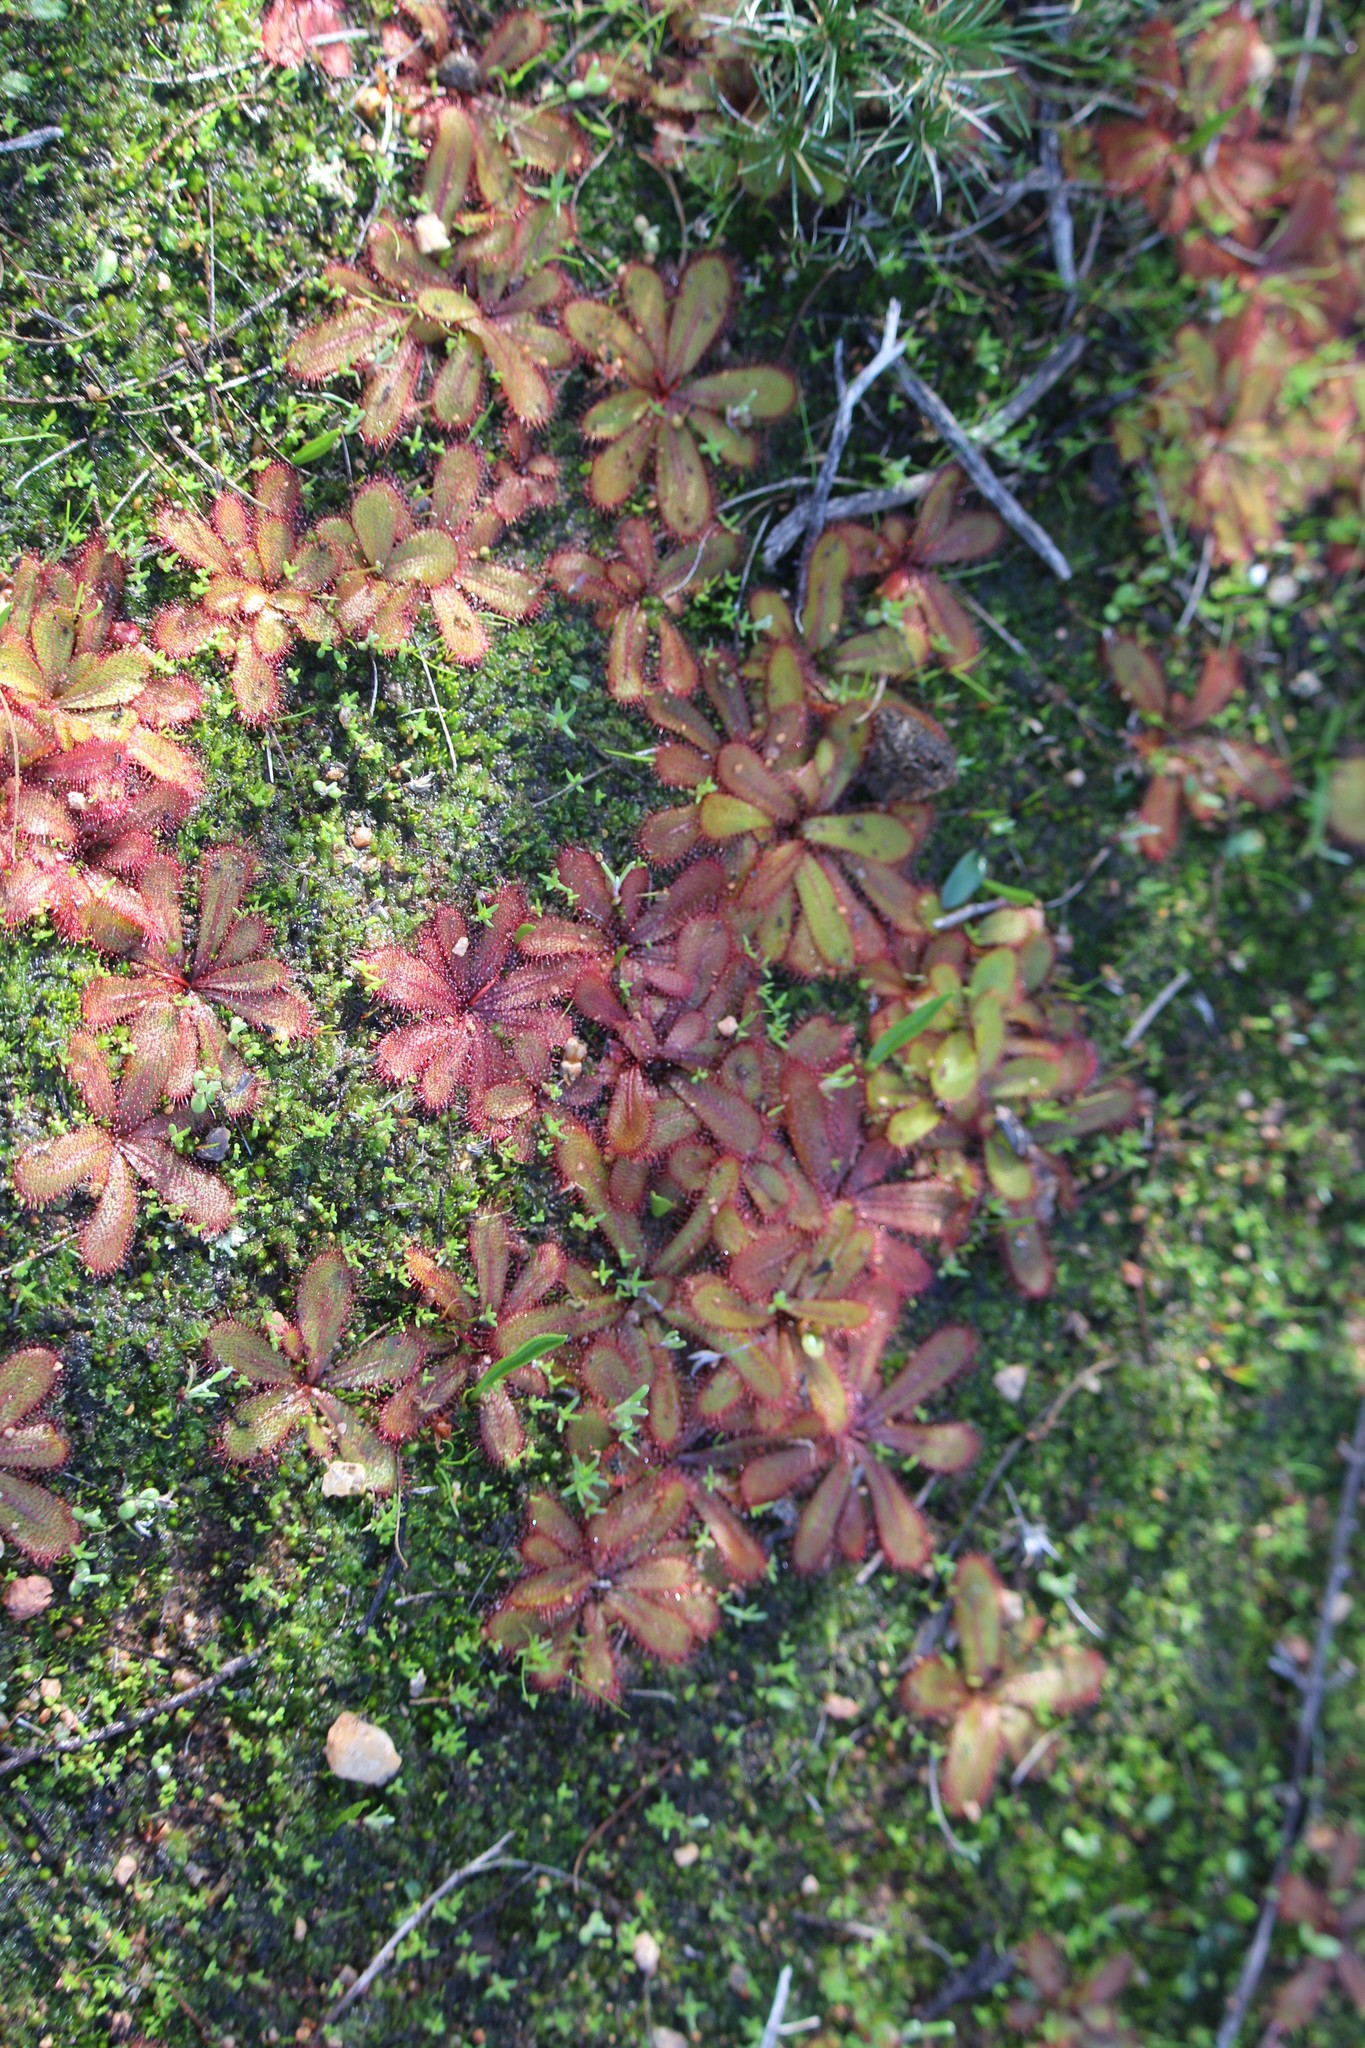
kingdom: Plantae
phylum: Tracheophyta
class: Magnoliopsida
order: Caryophyllales
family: Droseraceae
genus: Drosera
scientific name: Drosera bulbosa
